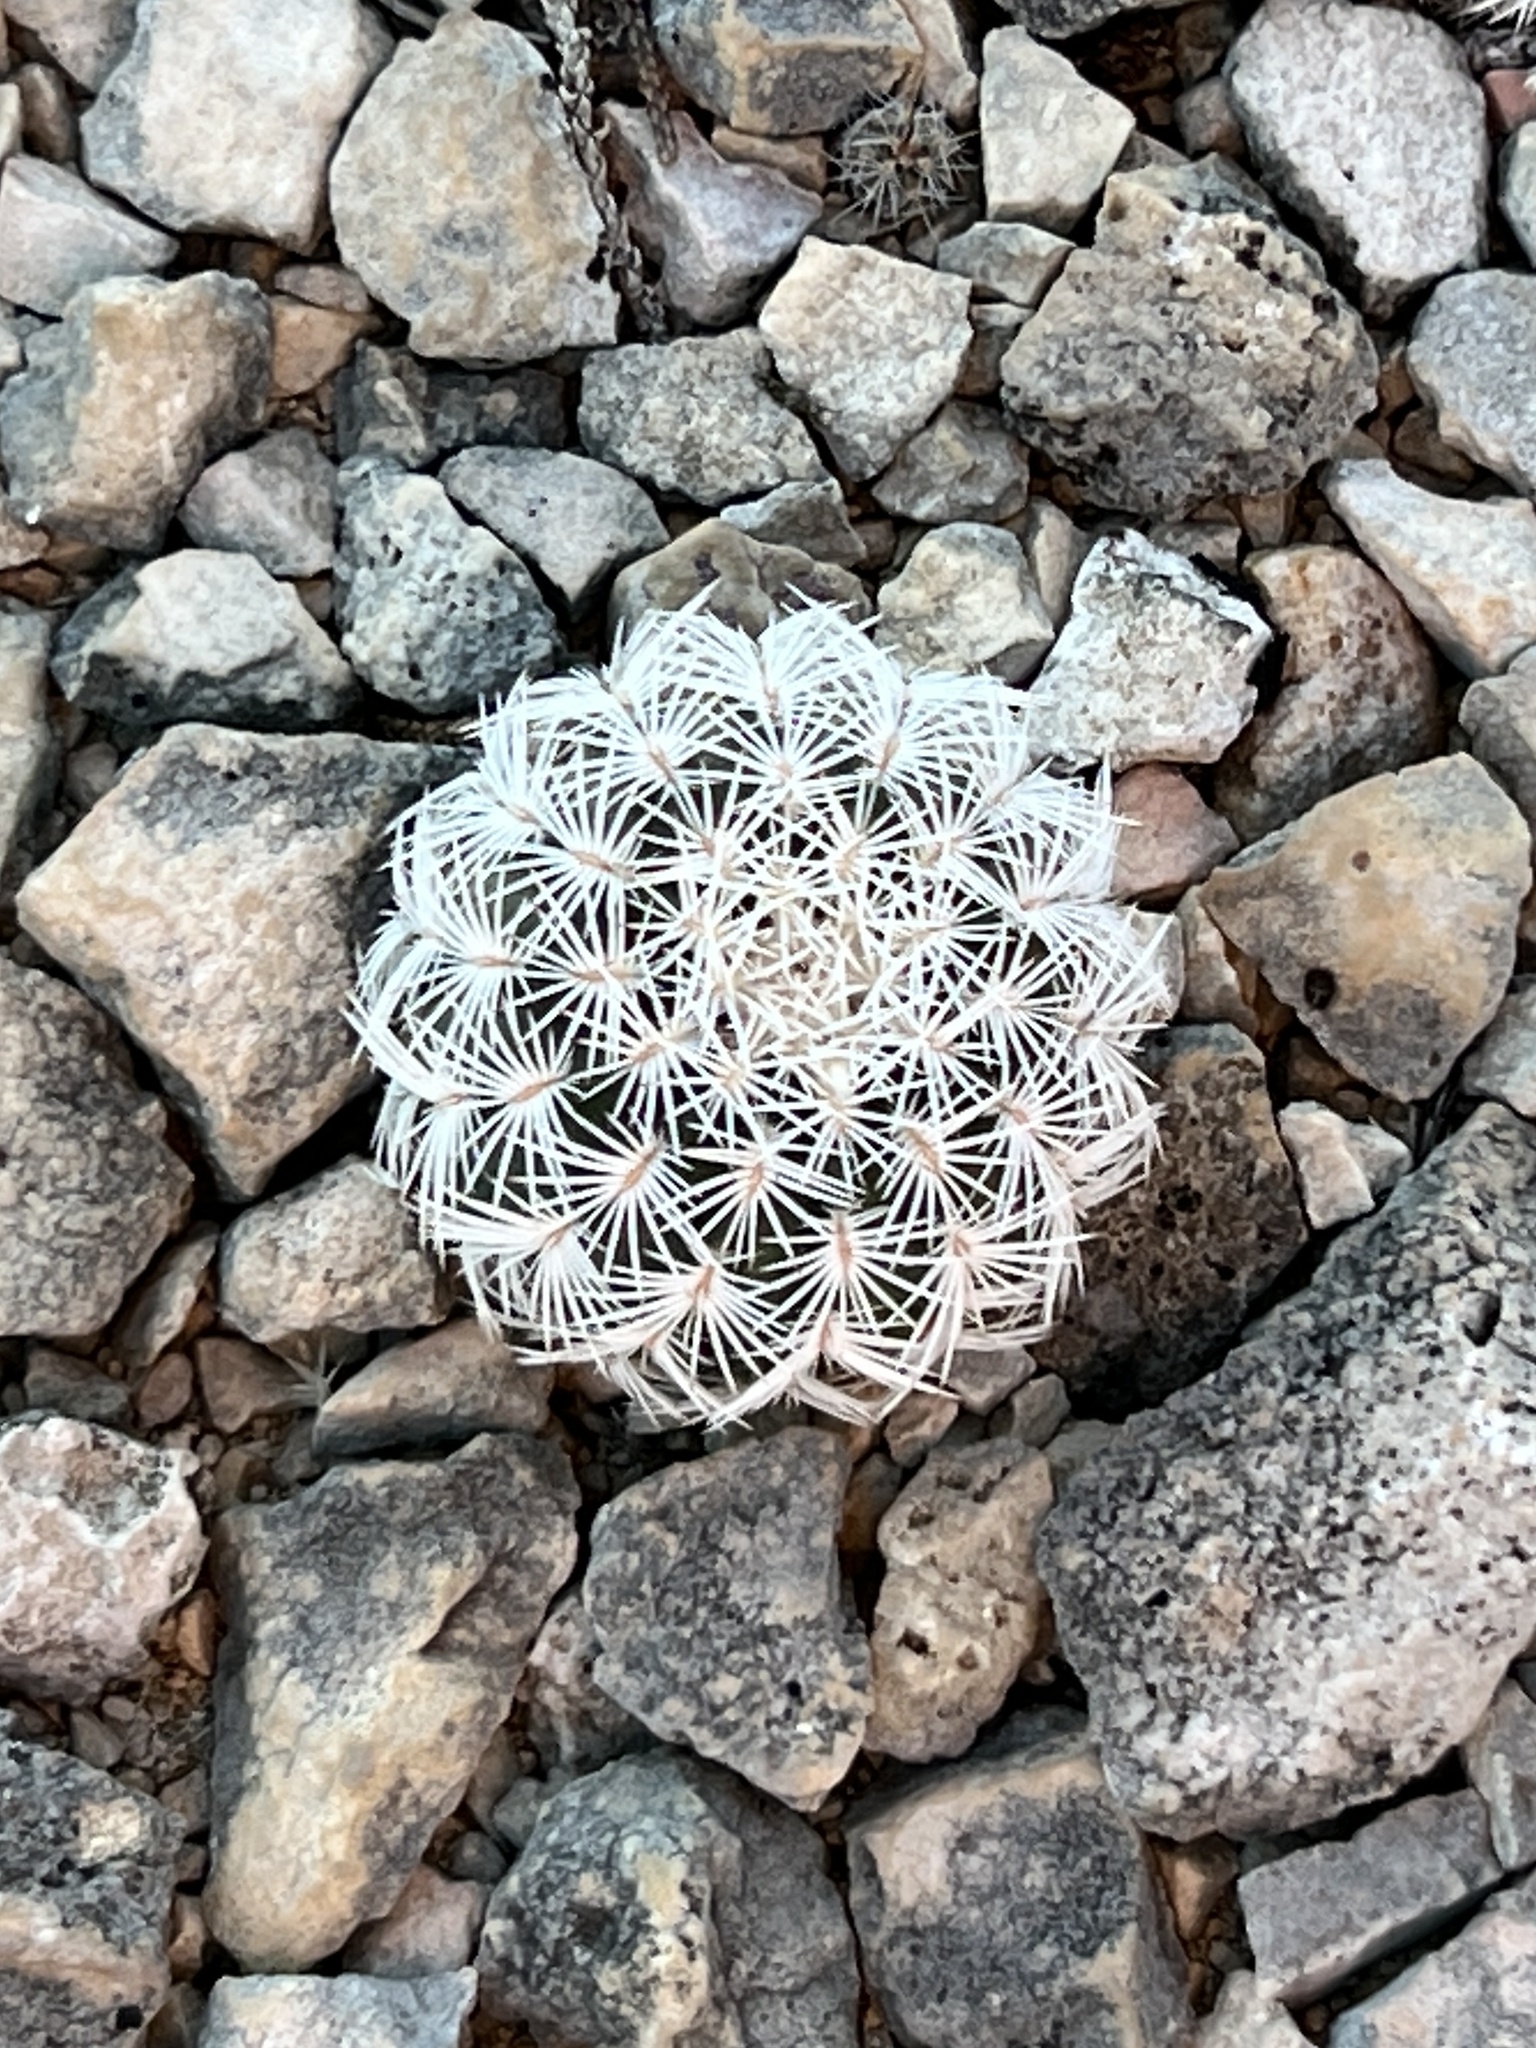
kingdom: Plantae
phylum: Tracheophyta
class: Magnoliopsida
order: Caryophyllales
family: Cactaceae
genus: Echinocereus
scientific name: Echinocereus reichenbachii
